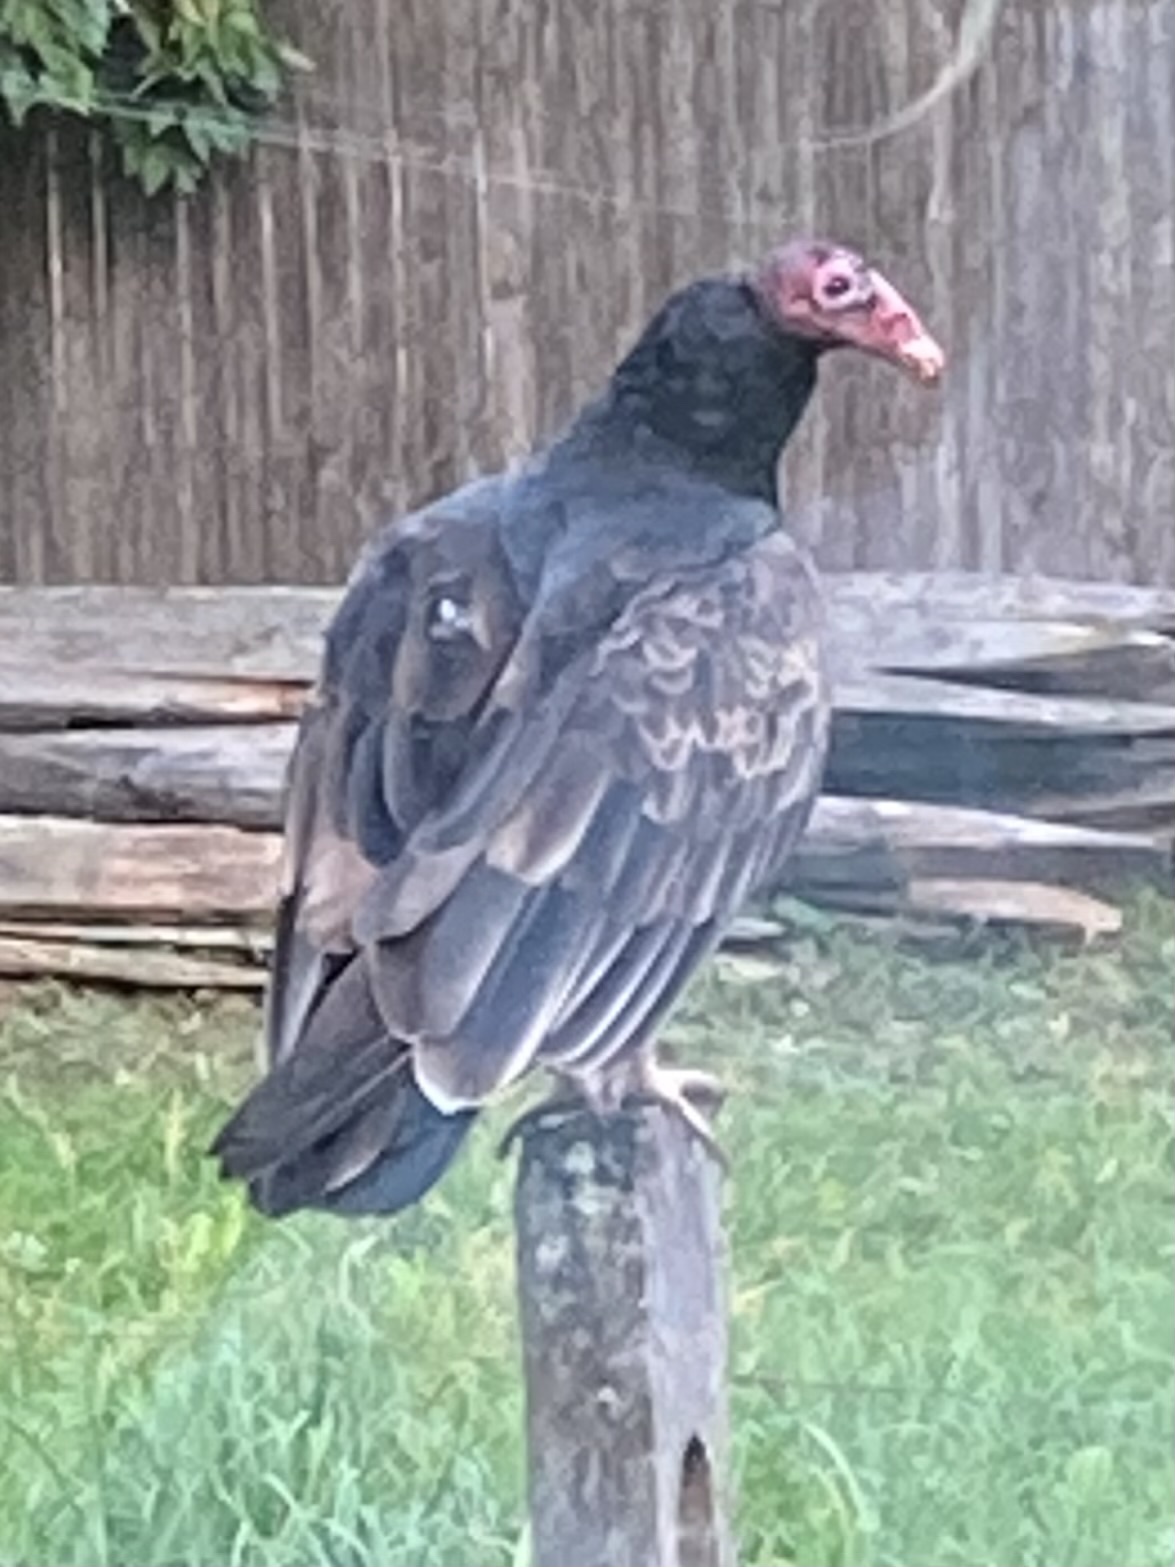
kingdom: Animalia
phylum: Chordata
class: Aves
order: Accipitriformes
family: Cathartidae
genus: Cathartes
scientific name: Cathartes aura
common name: Turkey vulture
